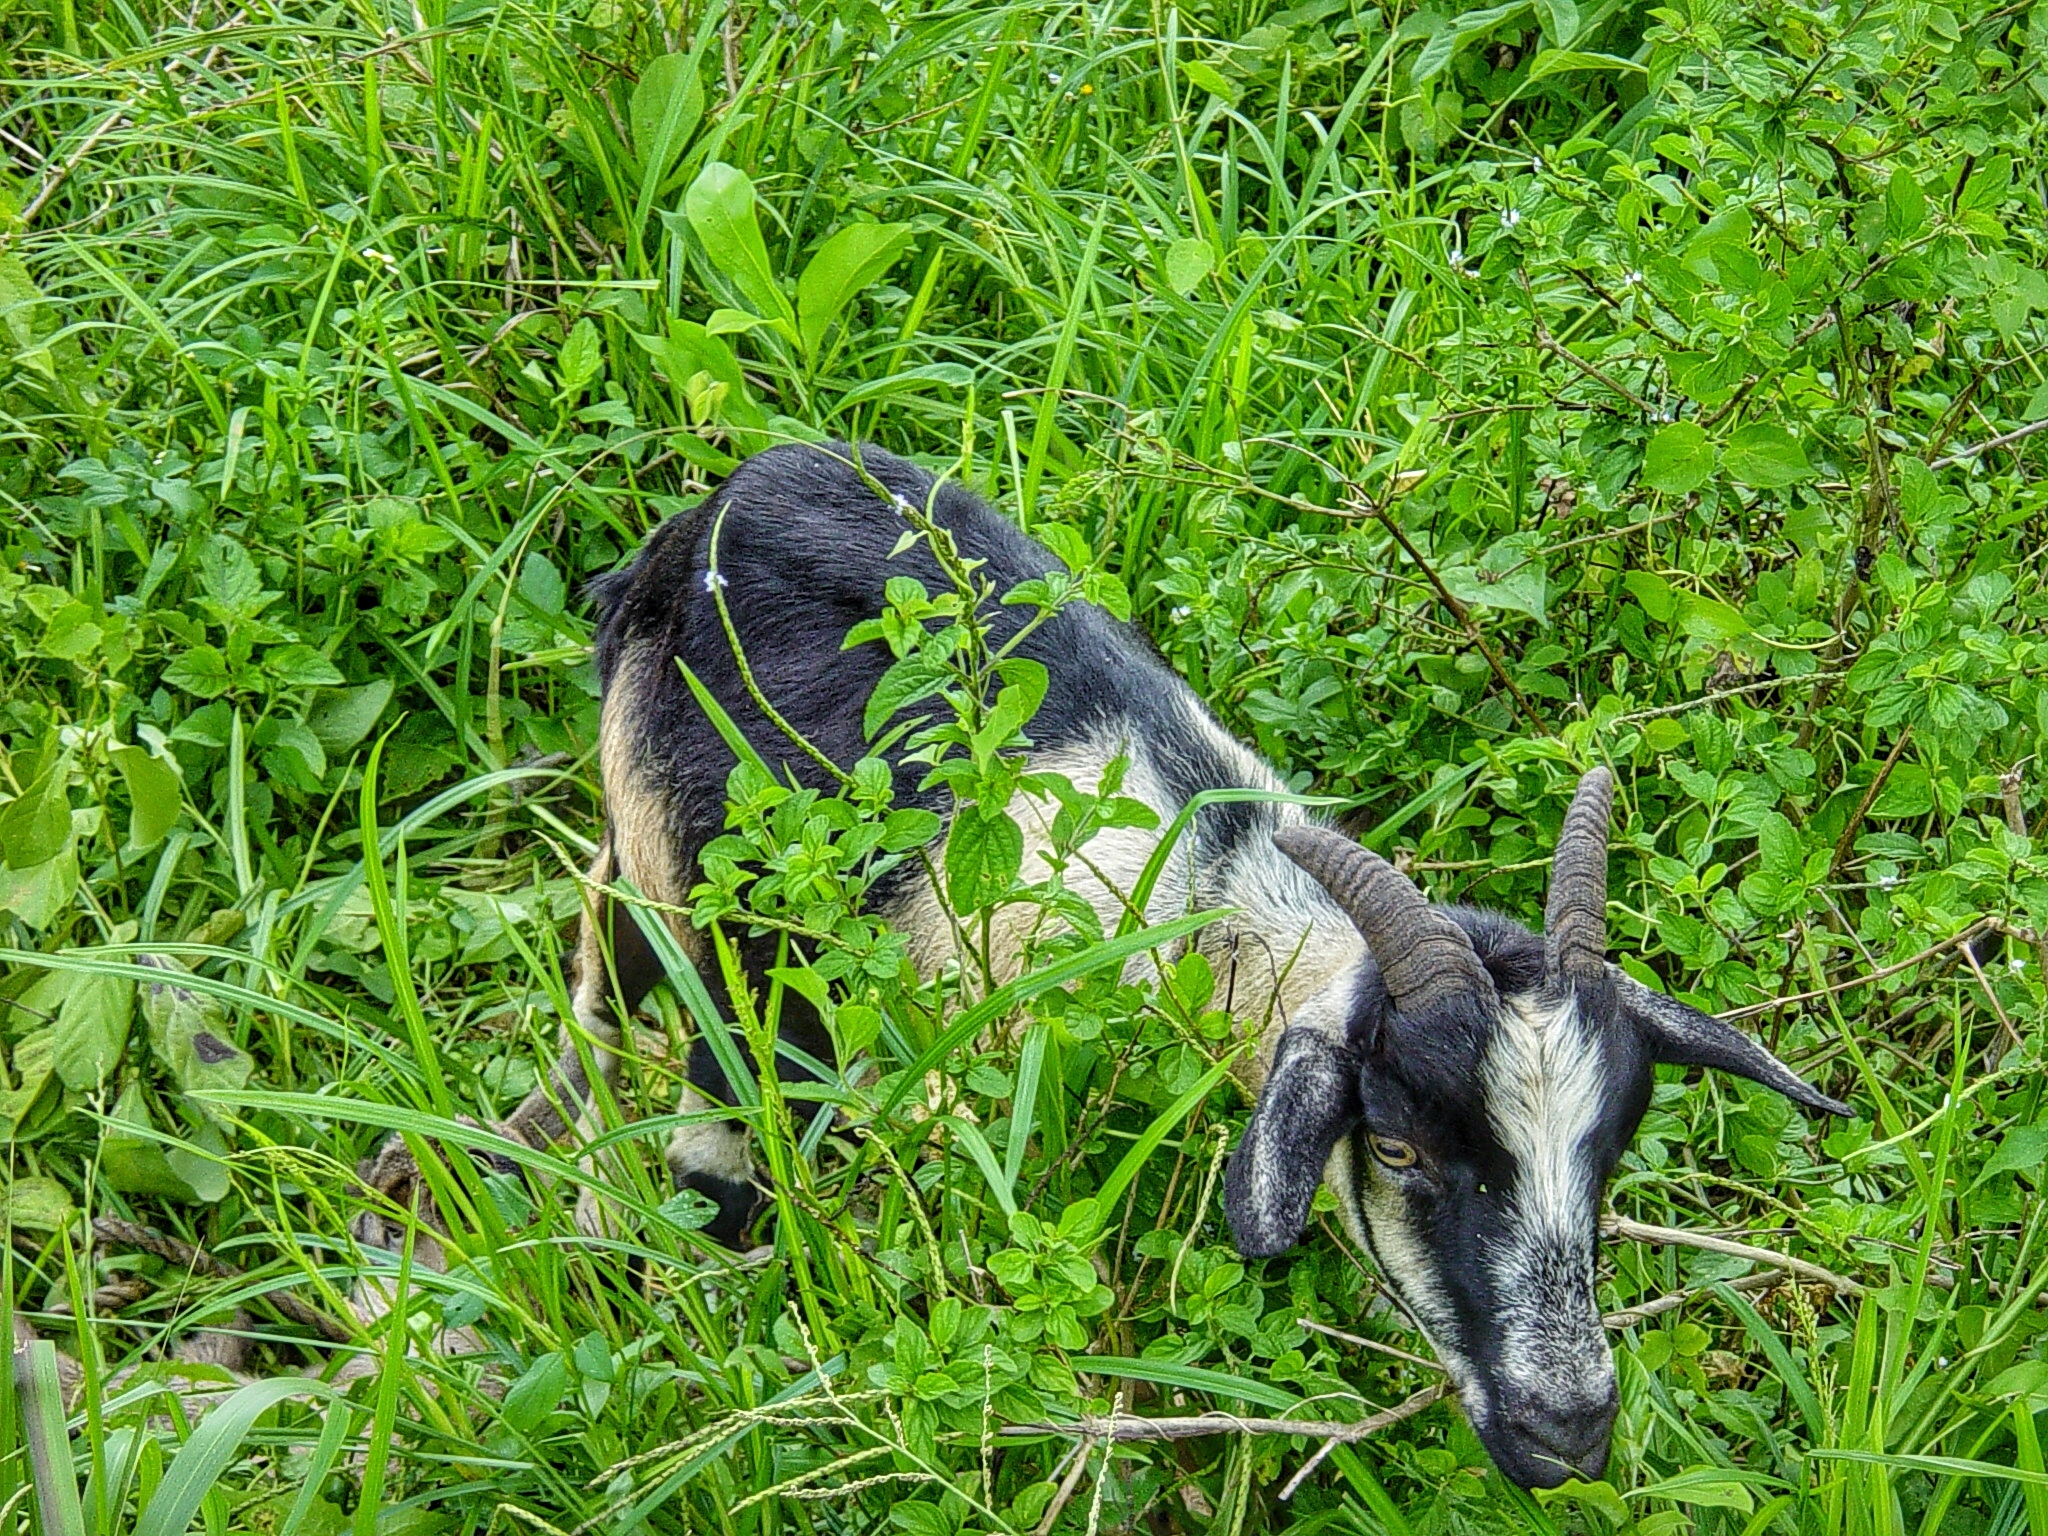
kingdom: Animalia
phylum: Chordata
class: Mammalia
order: Artiodactyla
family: Bovidae
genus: Capra
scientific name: Capra hircus
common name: Domestic goat
